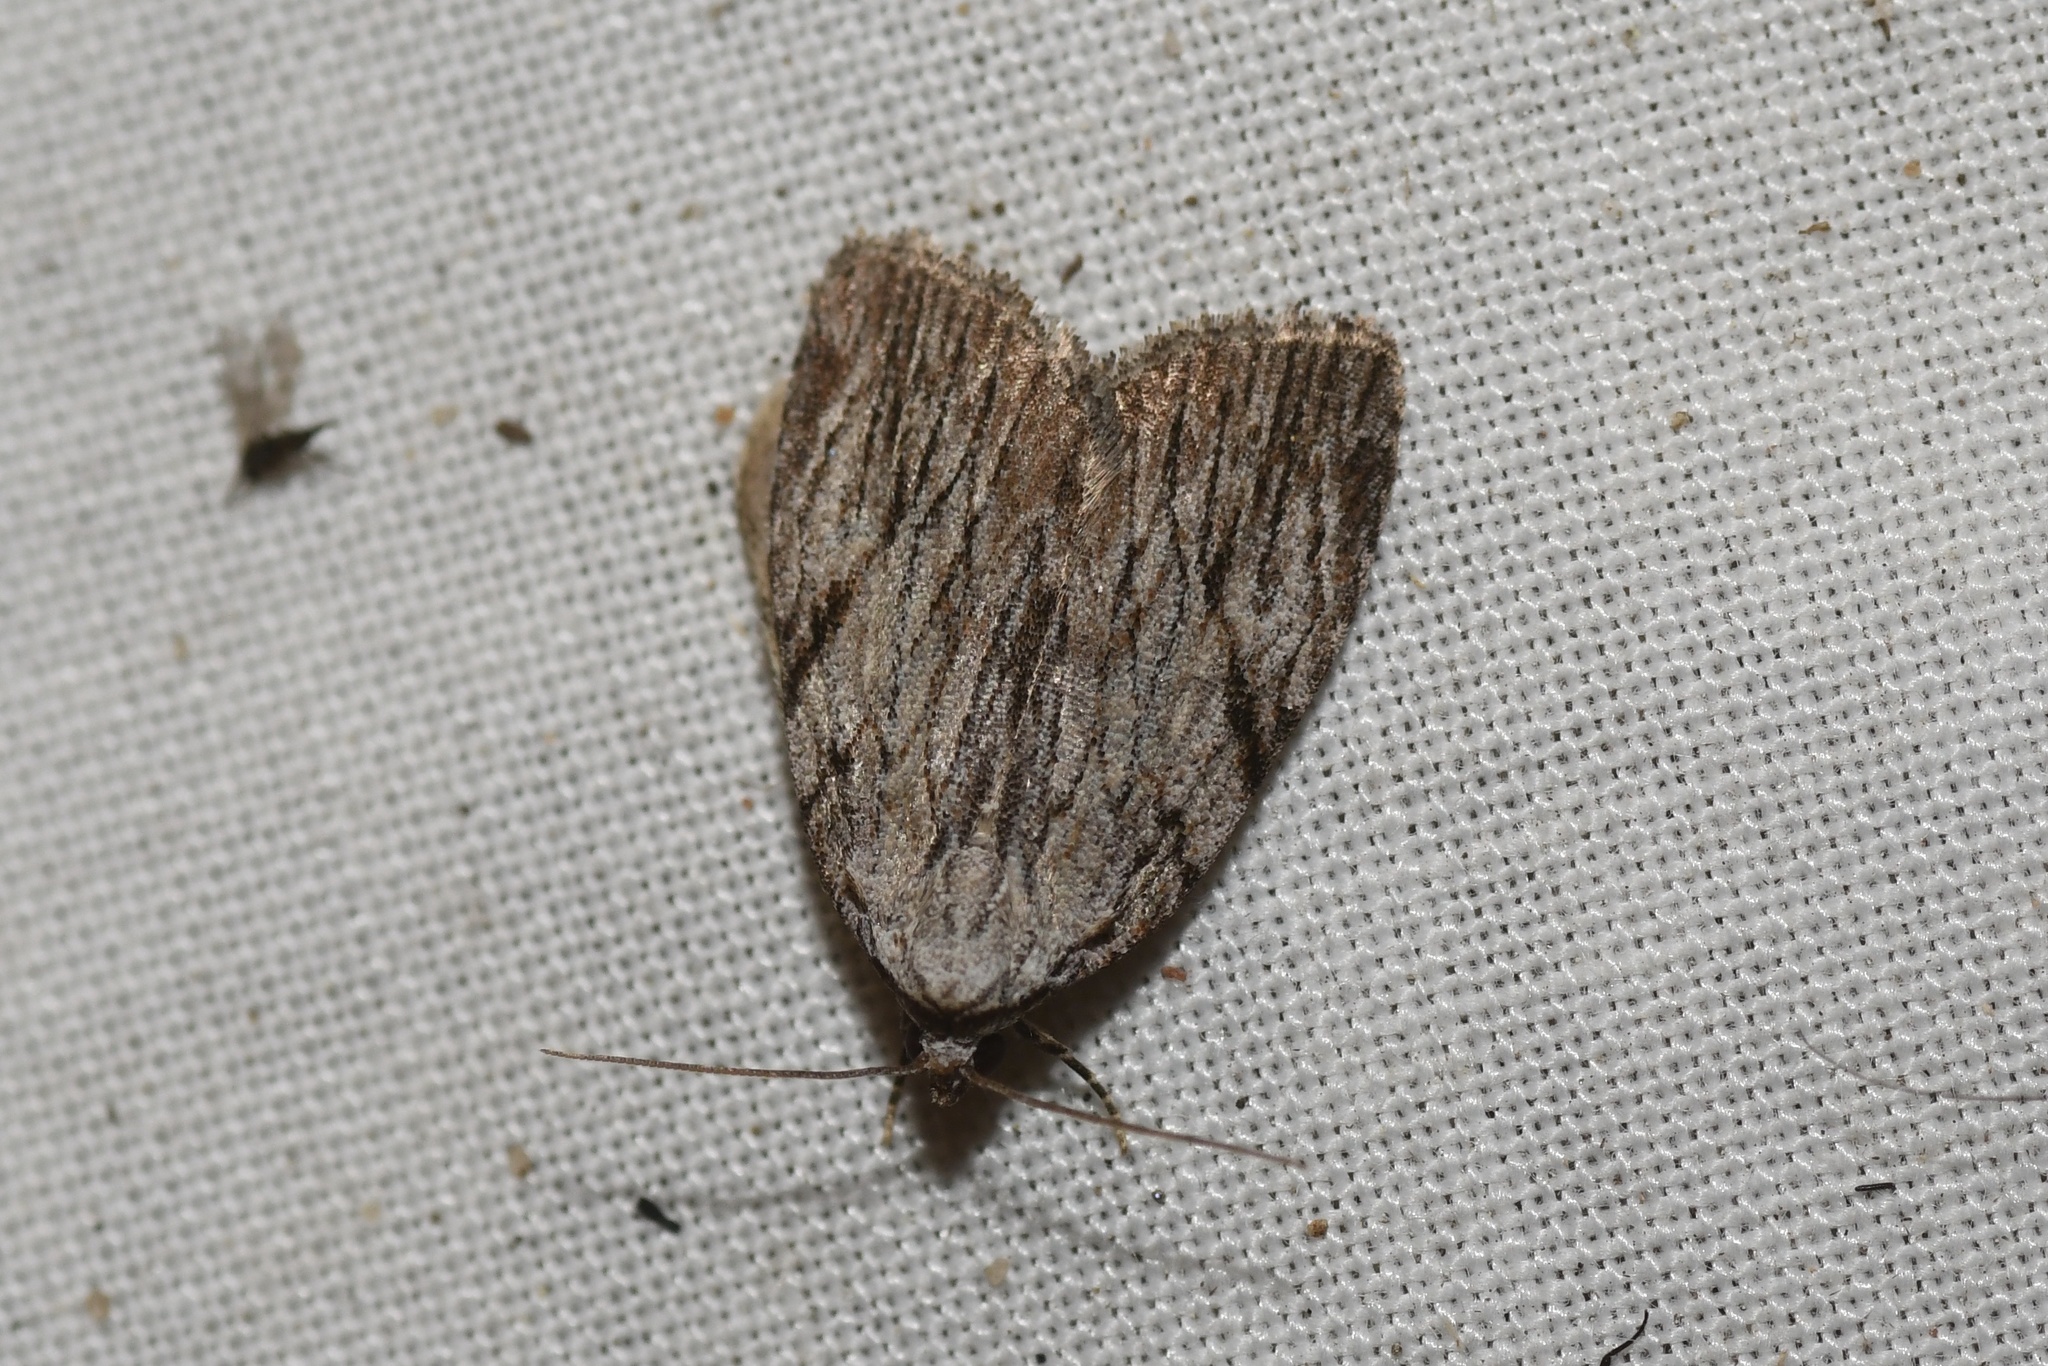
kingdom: Animalia
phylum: Arthropoda
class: Insecta
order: Lepidoptera
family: Noctuidae
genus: Balsa
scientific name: Balsa tristrigella
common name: Three-lined balsa moth
